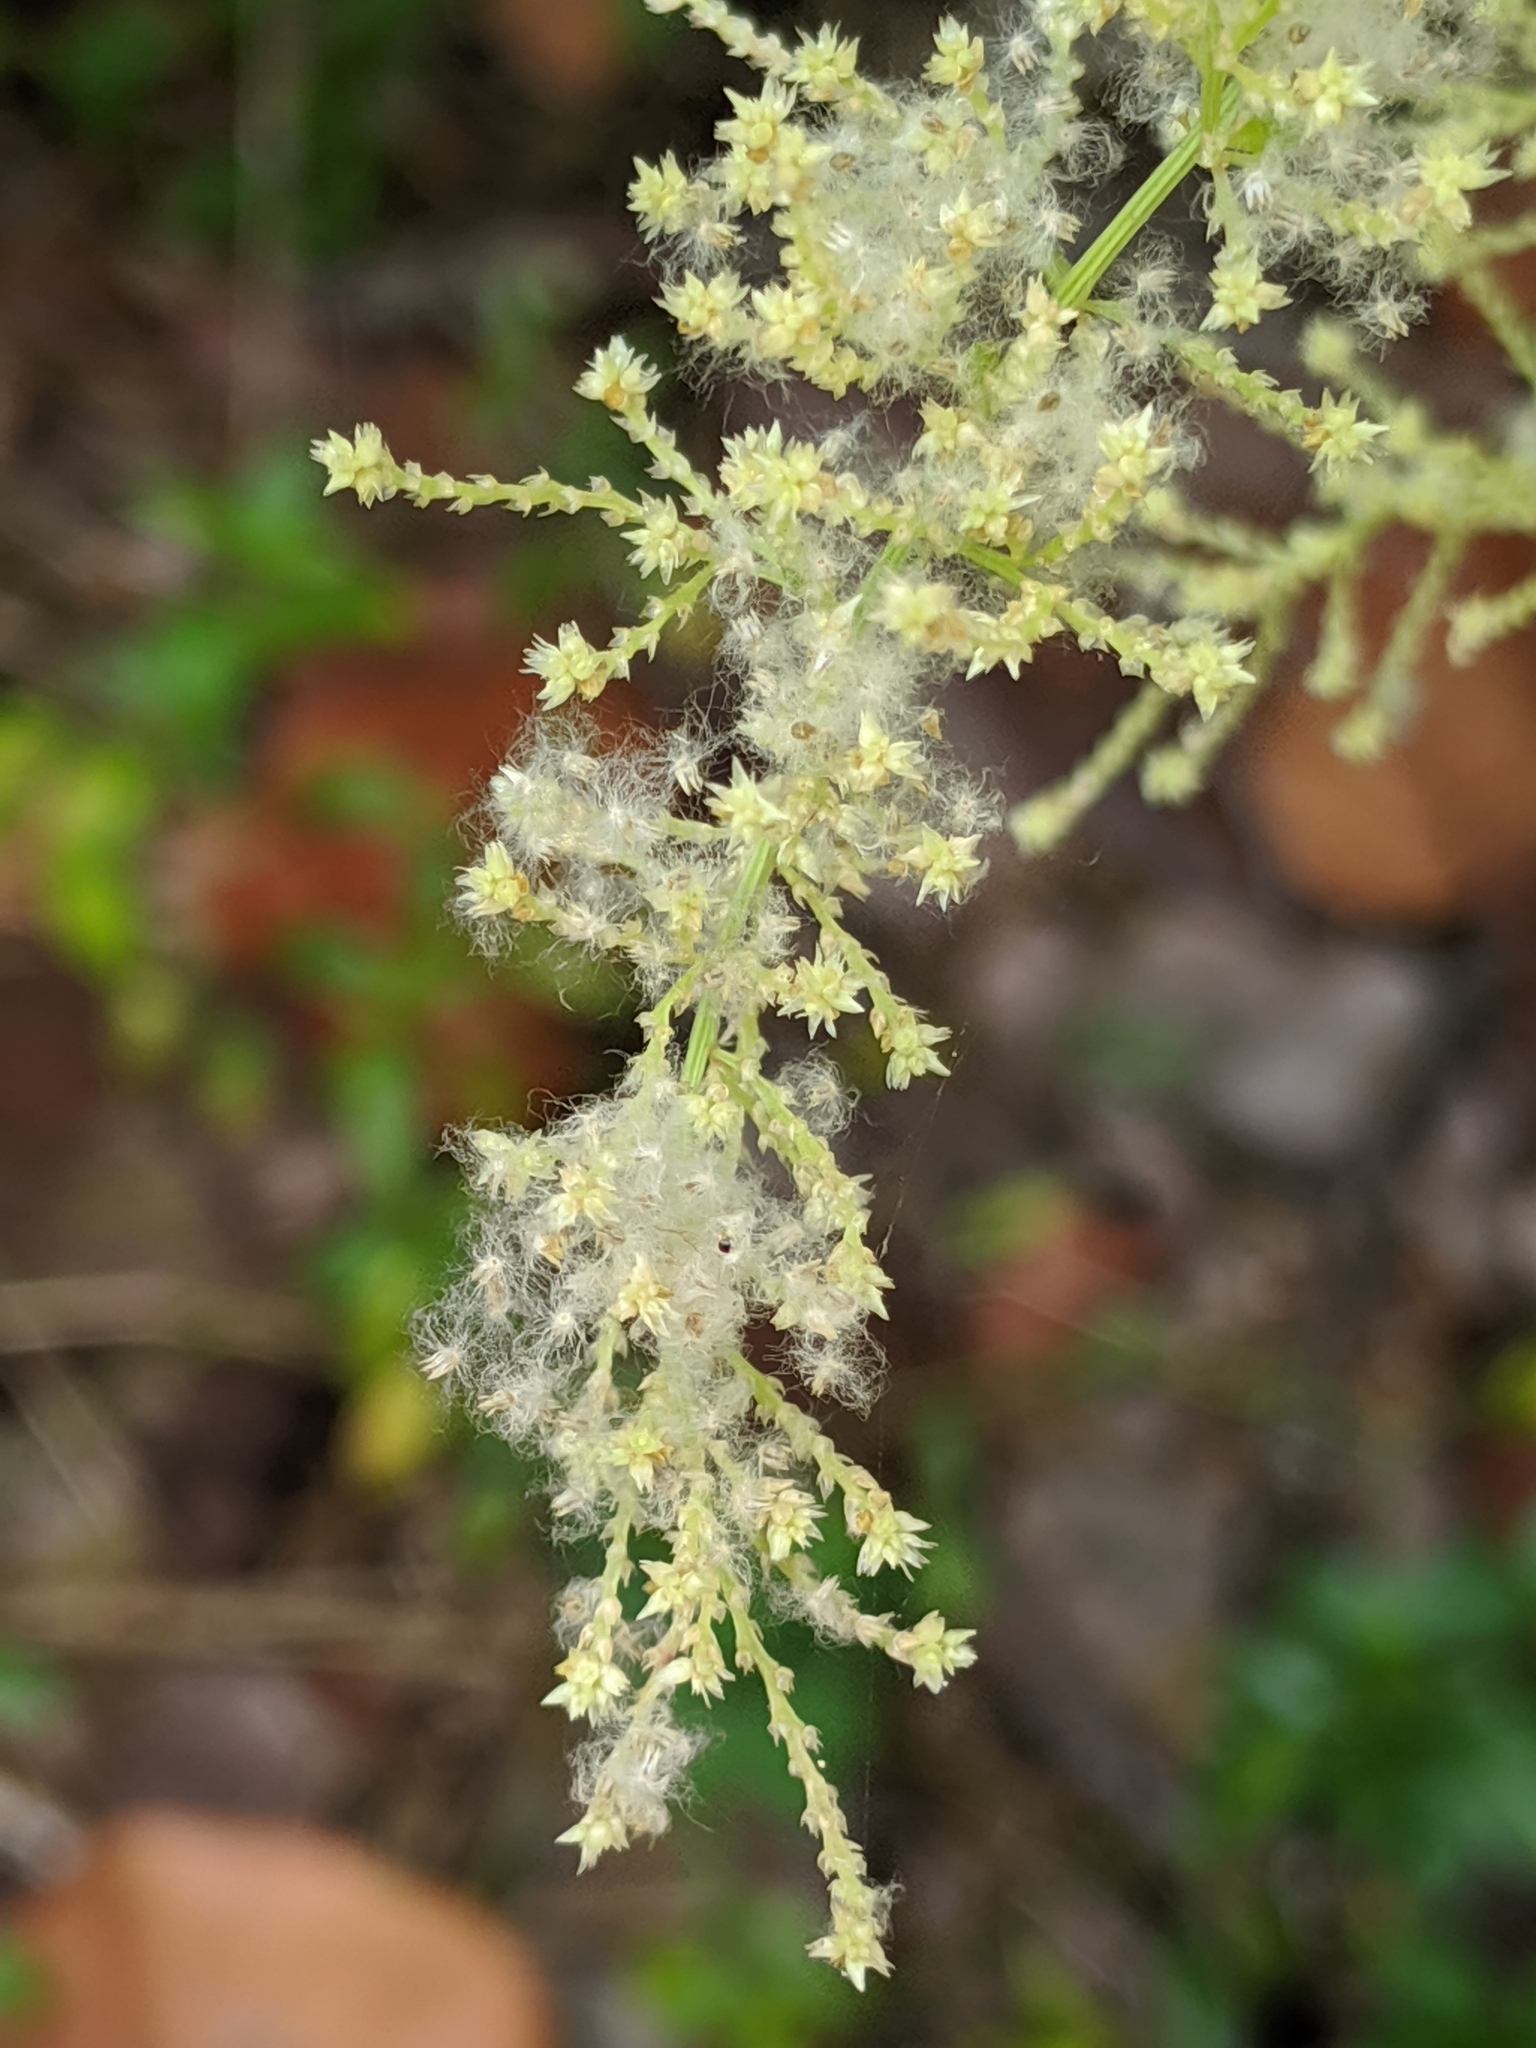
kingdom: Plantae
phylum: Tracheophyta
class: Magnoliopsida
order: Caryophyllales
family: Amaranthaceae
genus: Iresine
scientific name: Iresine diffusa
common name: Juba's-bush
